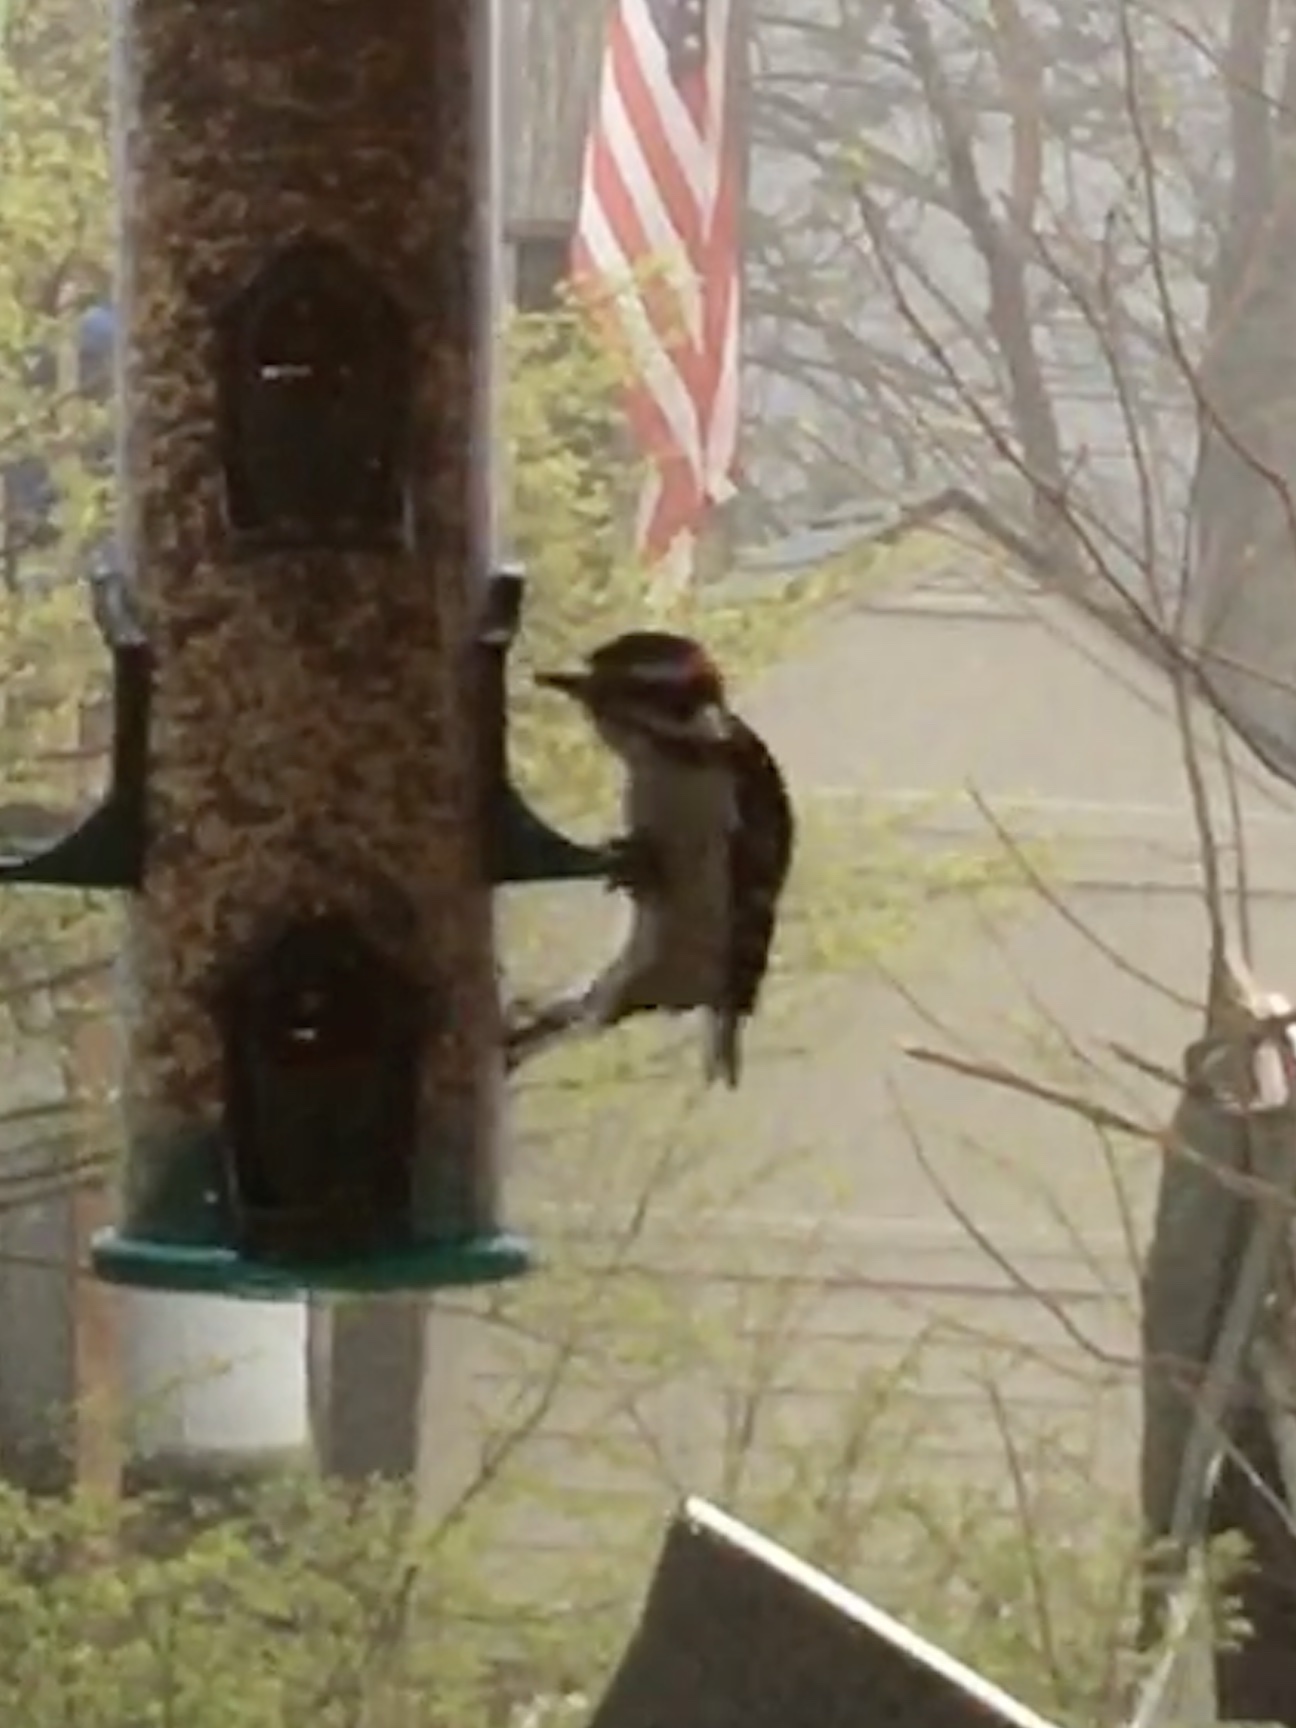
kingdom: Animalia
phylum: Chordata
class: Aves
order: Piciformes
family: Picidae
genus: Dryobates
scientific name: Dryobates pubescens
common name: Downy woodpecker
